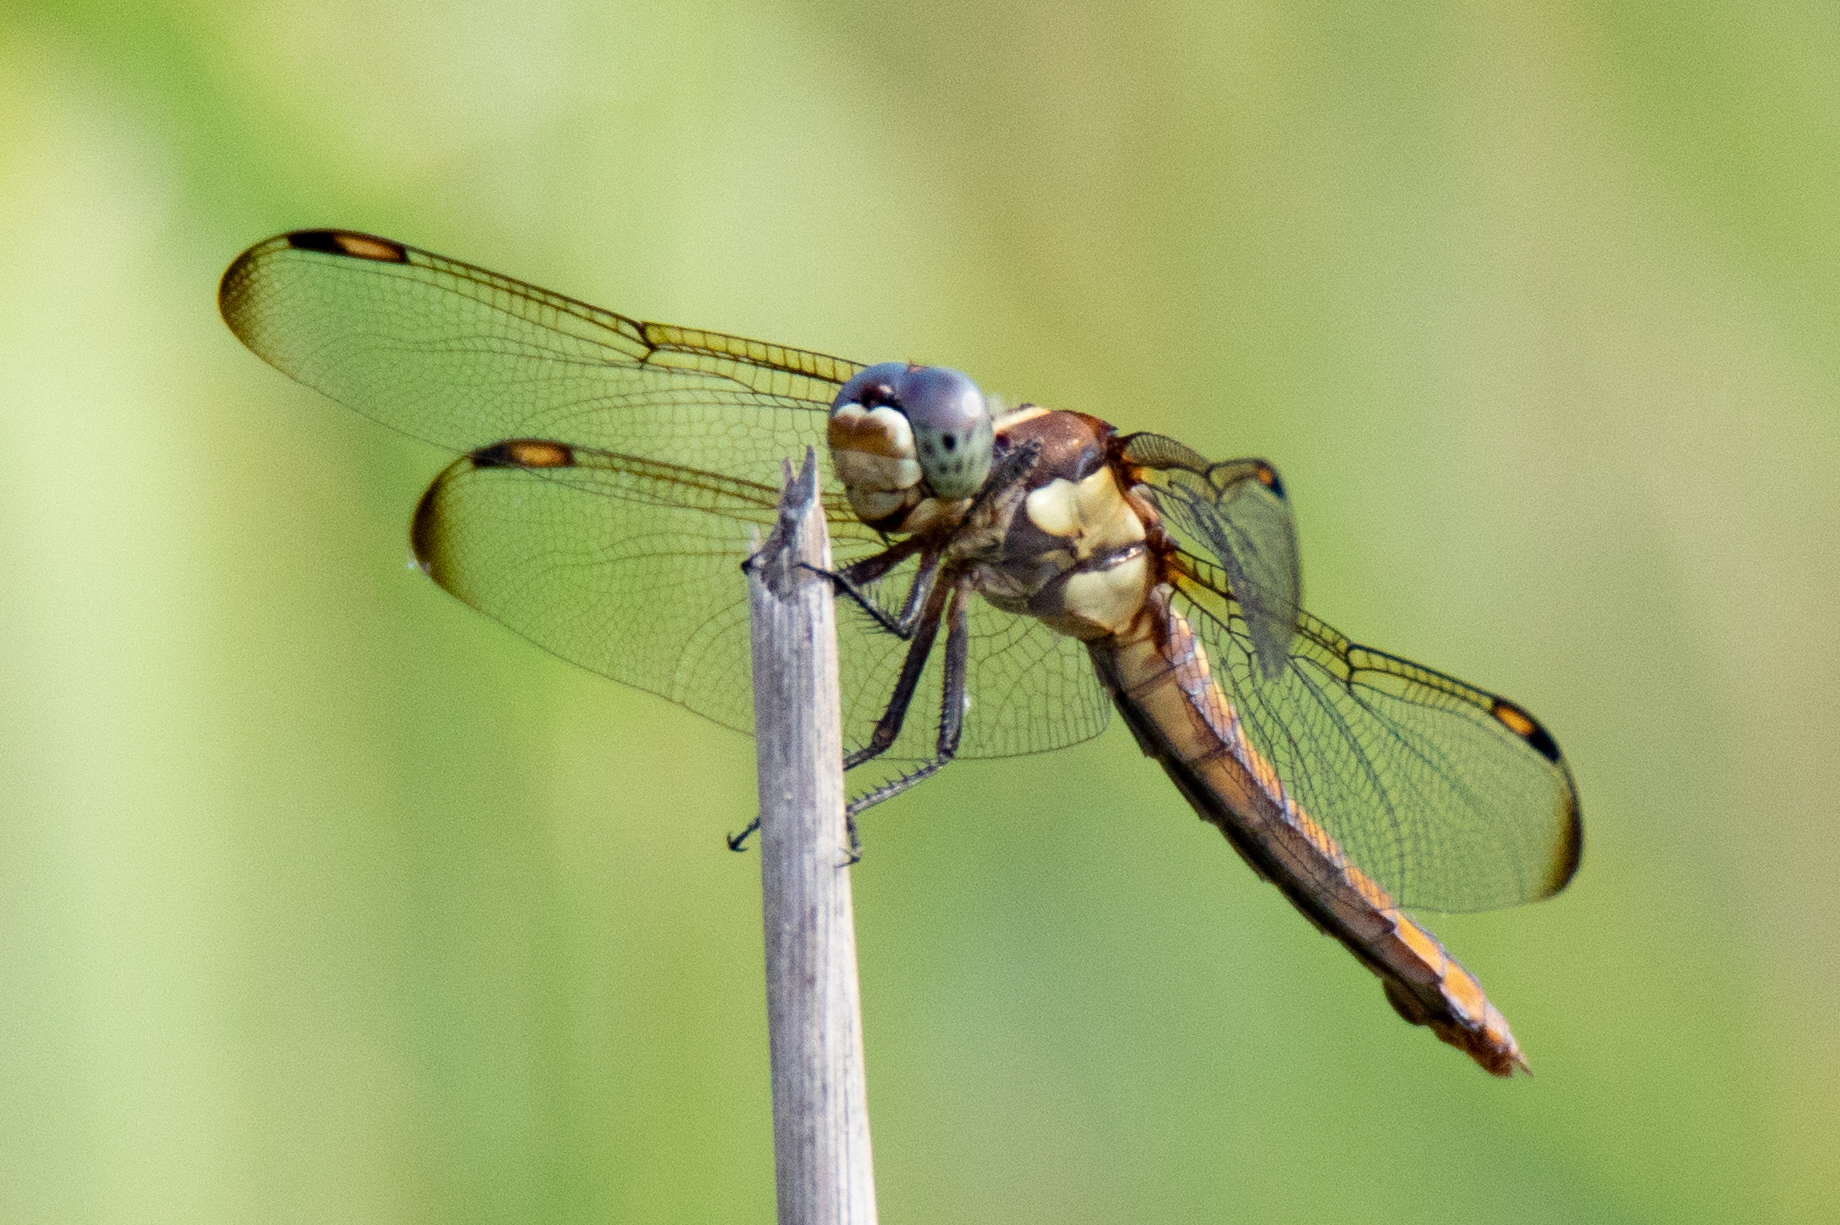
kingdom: Animalia
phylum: Arthropoda
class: Insecta
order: Odonata
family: Libellulidae
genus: Libellula
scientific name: Libellula comanche
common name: Comanche skimmer
